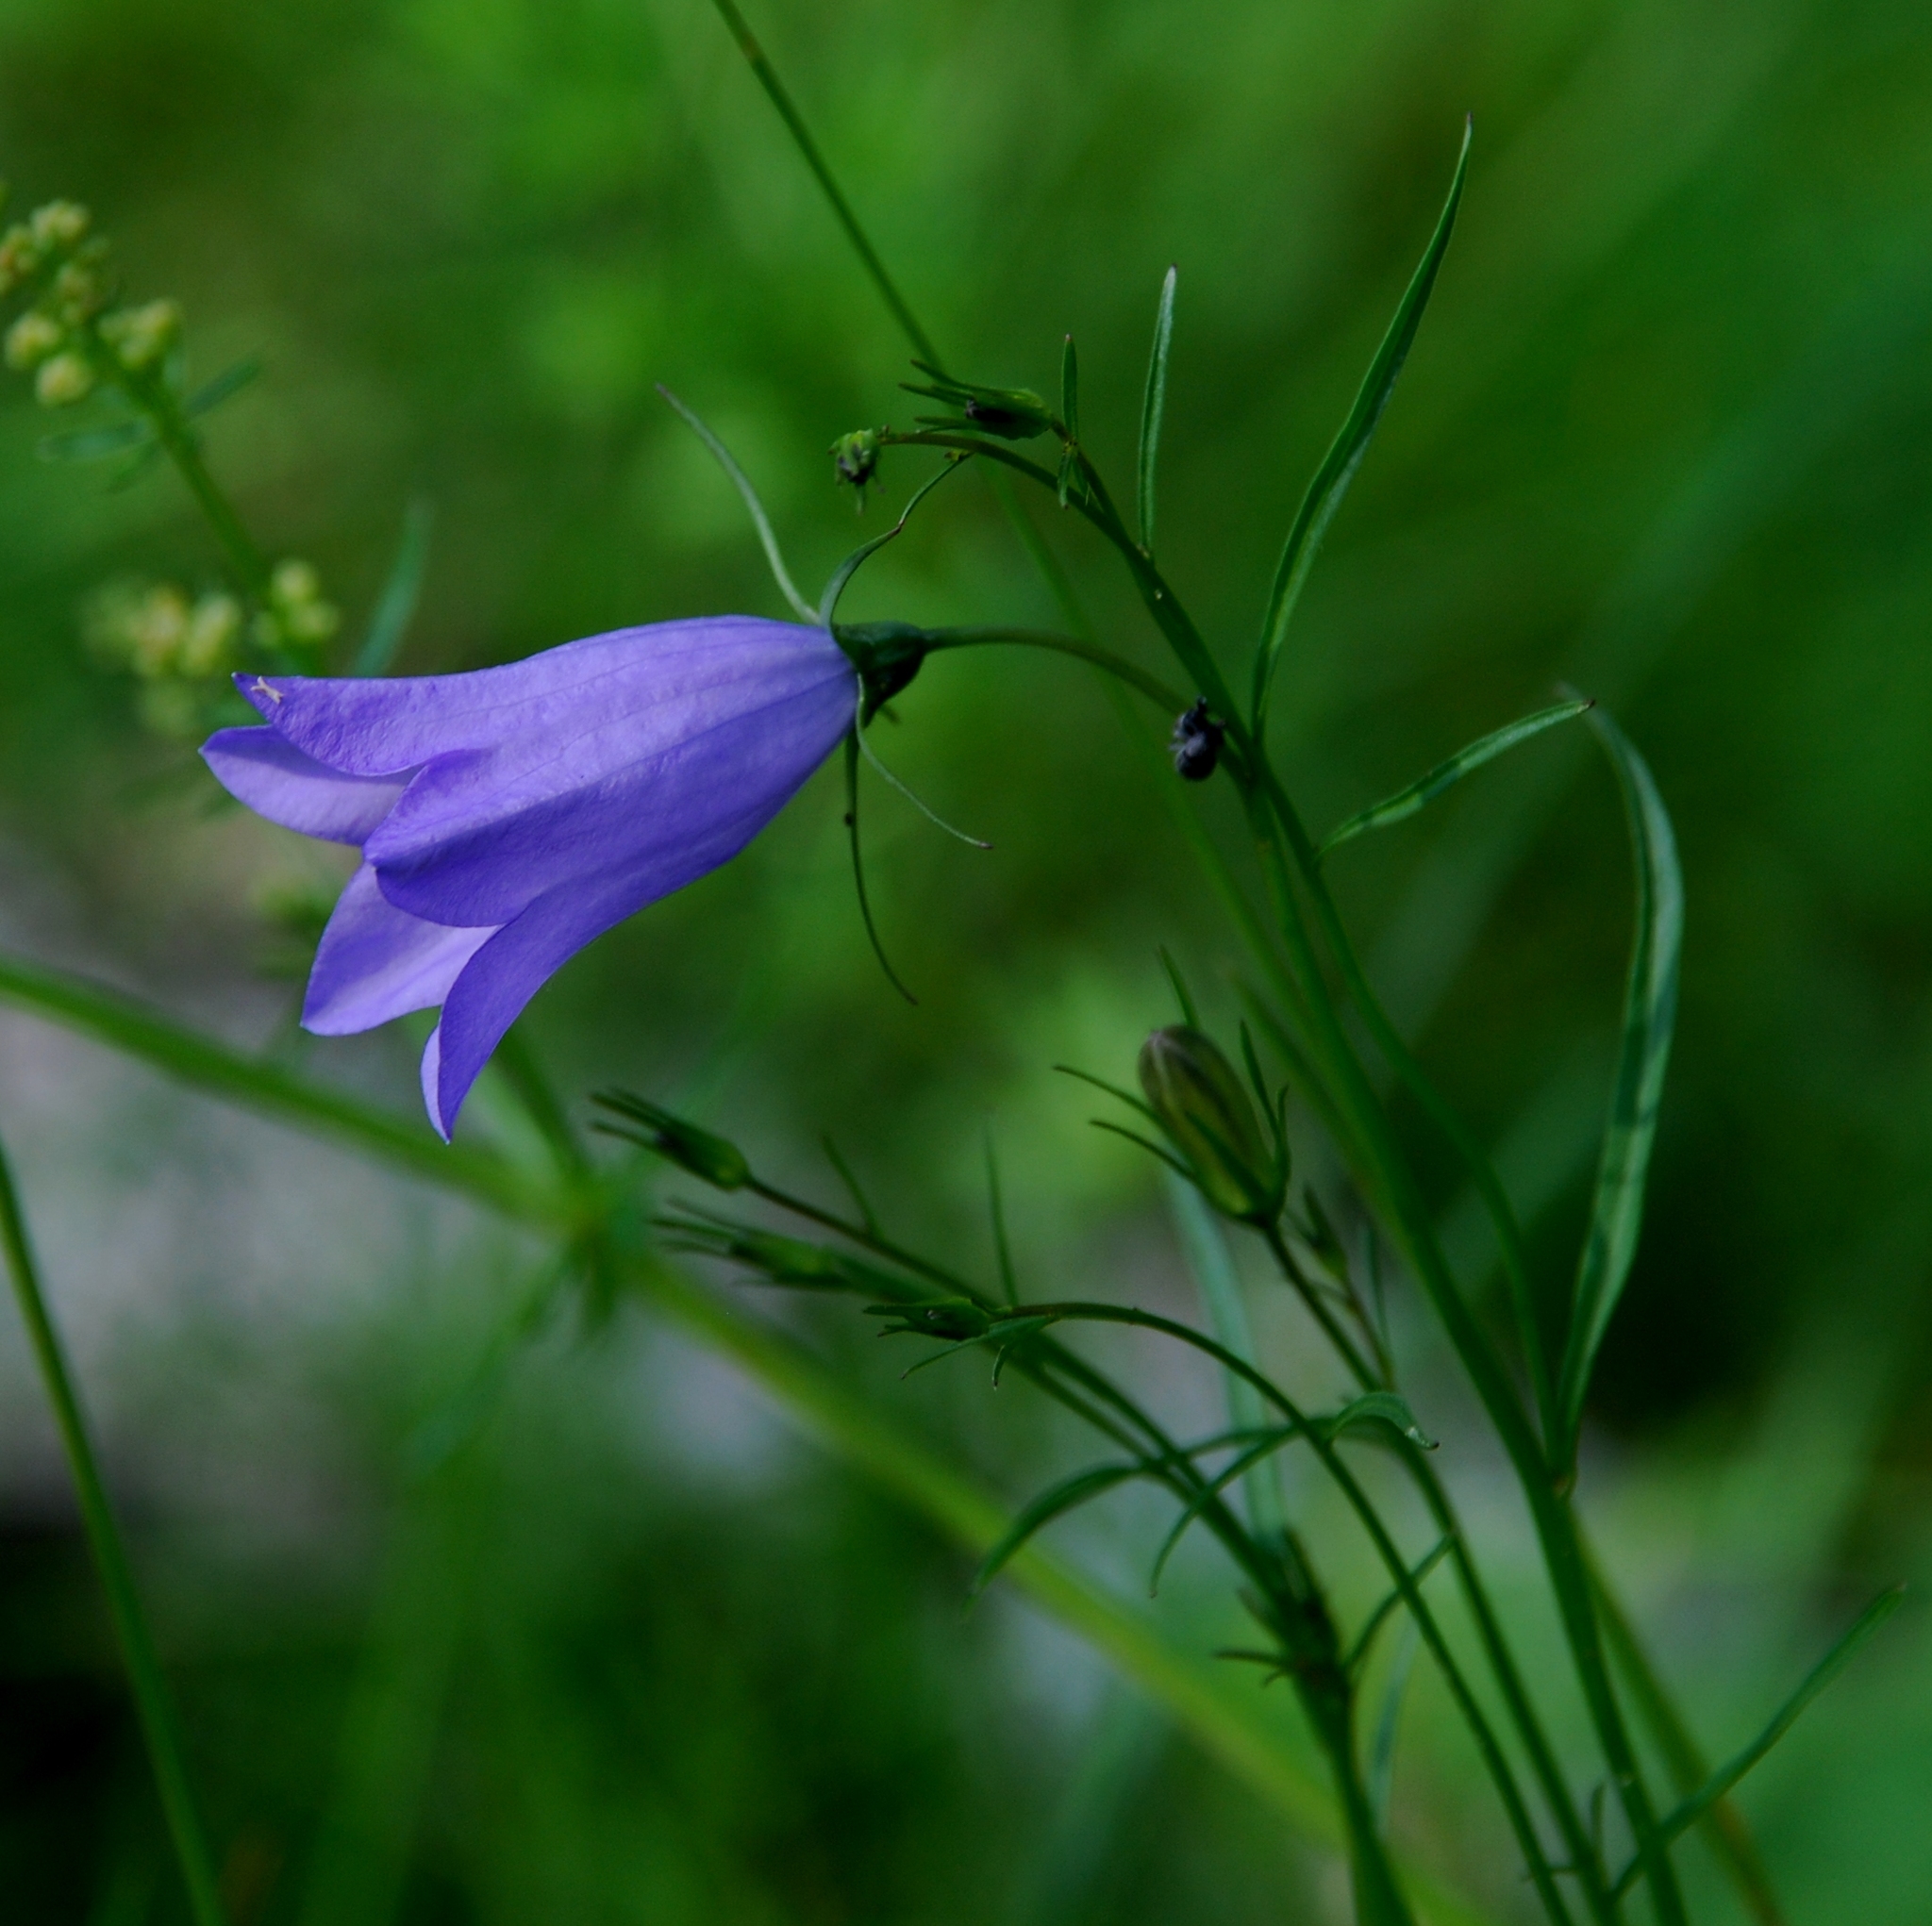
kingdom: Plantae
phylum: Tracheophyta
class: Magnoliopsida
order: Asterales
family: Campanulaceae
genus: Campanula
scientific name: Campanula rotundifolia
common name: Harebell
